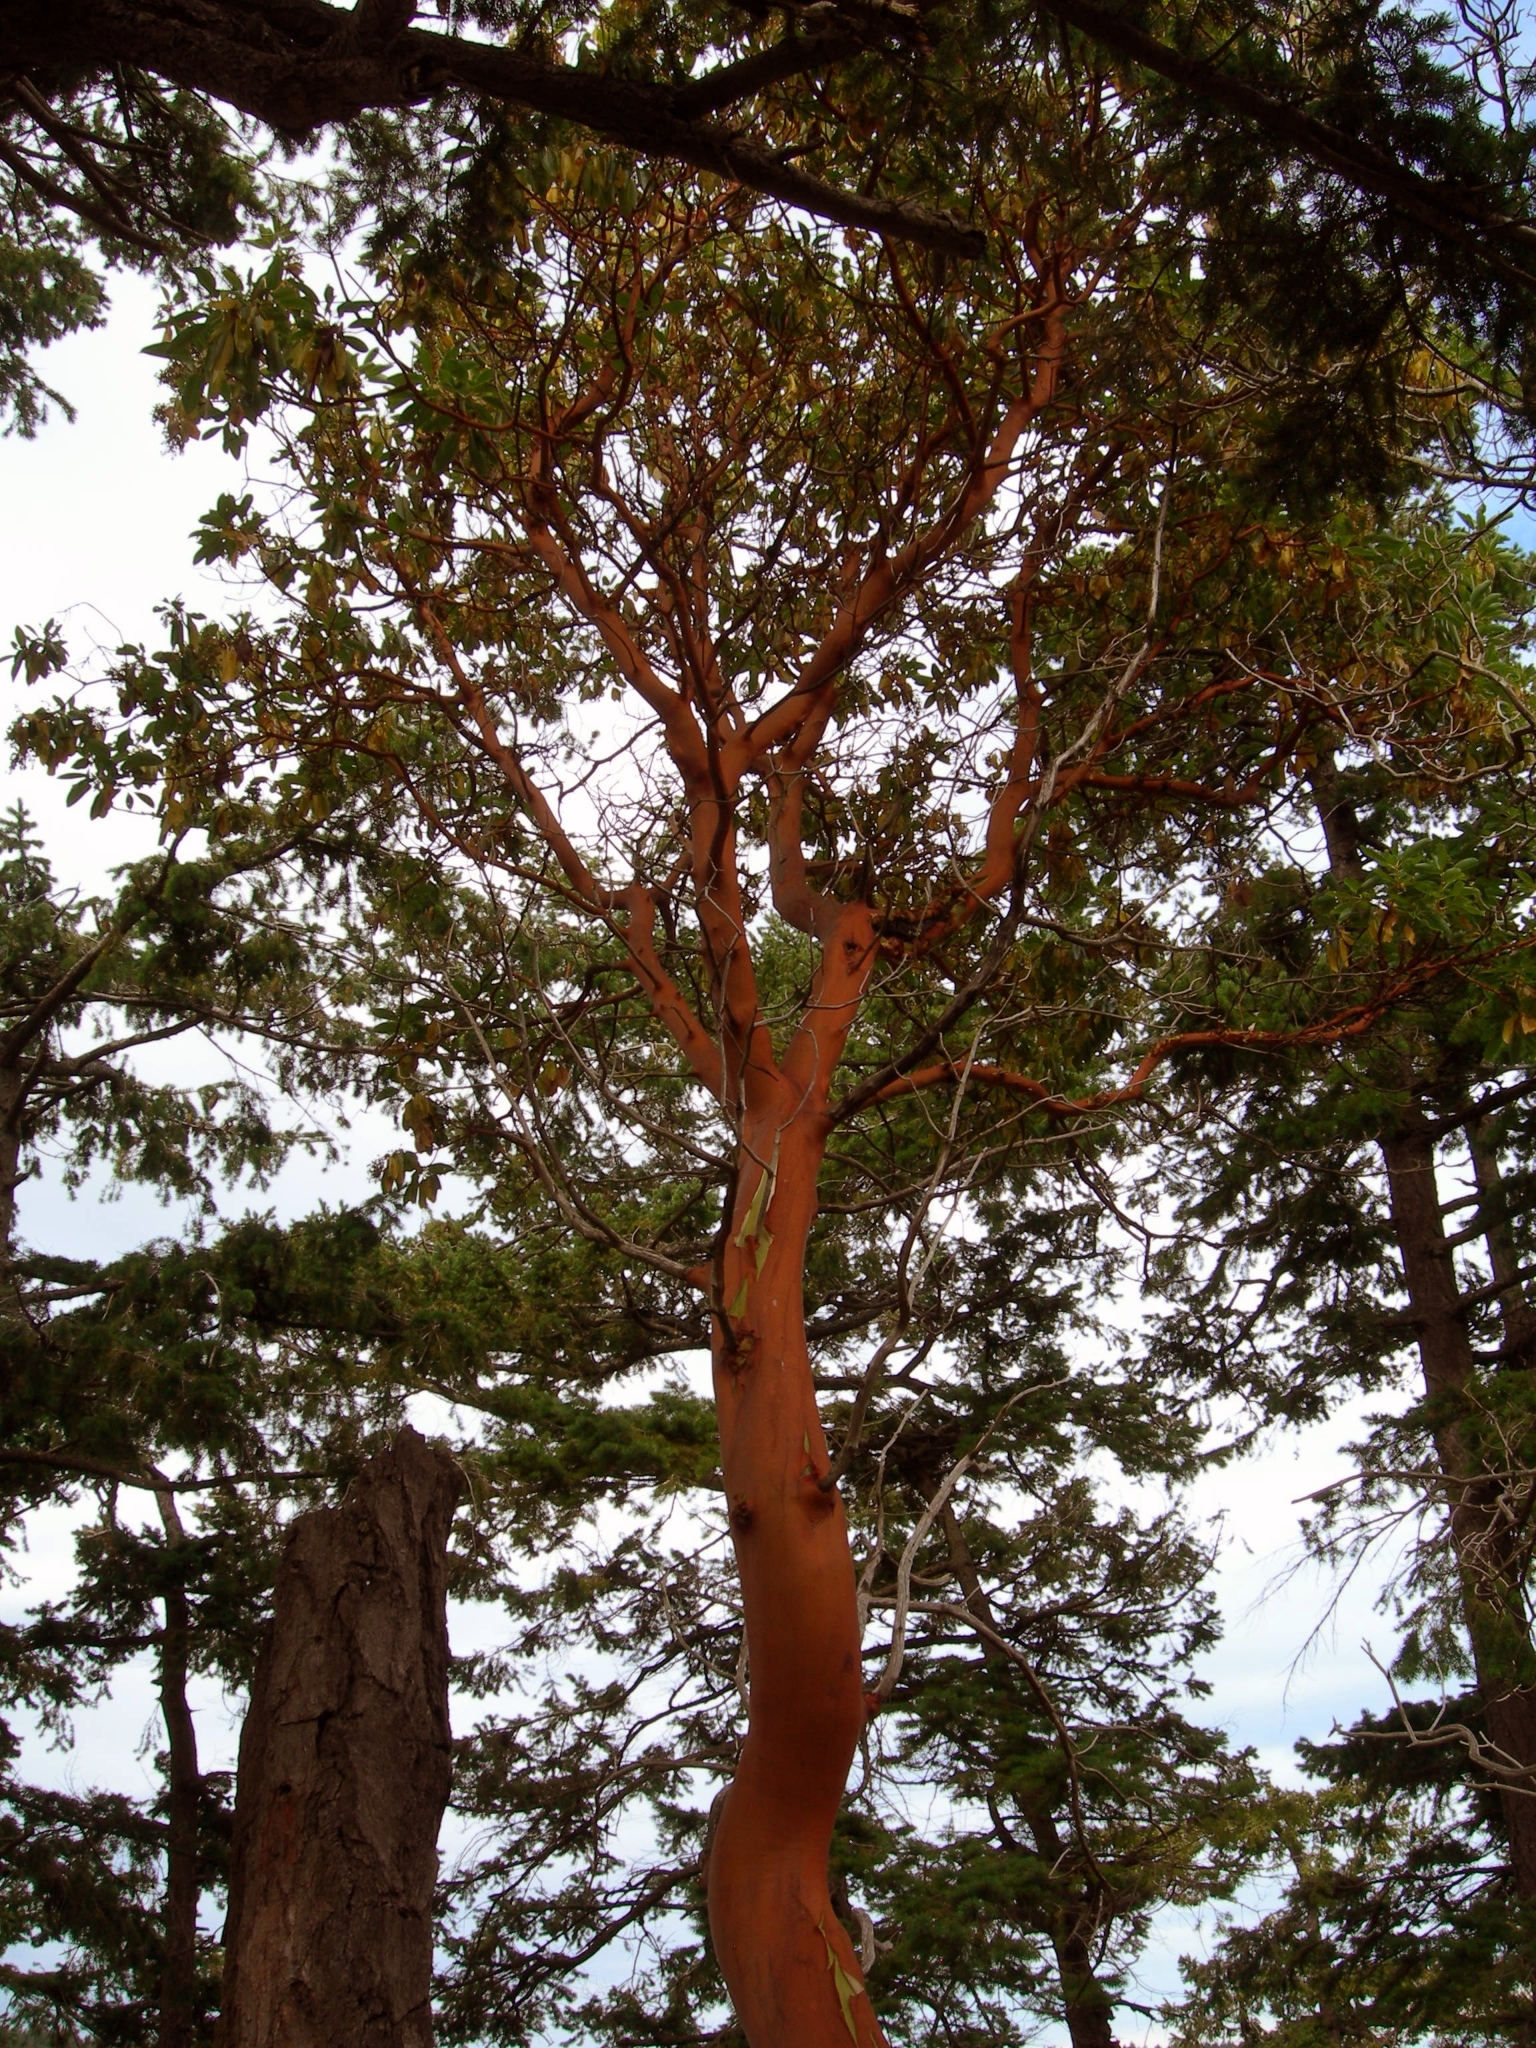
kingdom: Plantae
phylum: Tracheophyta
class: Magnoliopsida
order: Ericales
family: Ericaceae
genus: Arbutus
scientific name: Arbutus menziesii
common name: Pacific madrone
